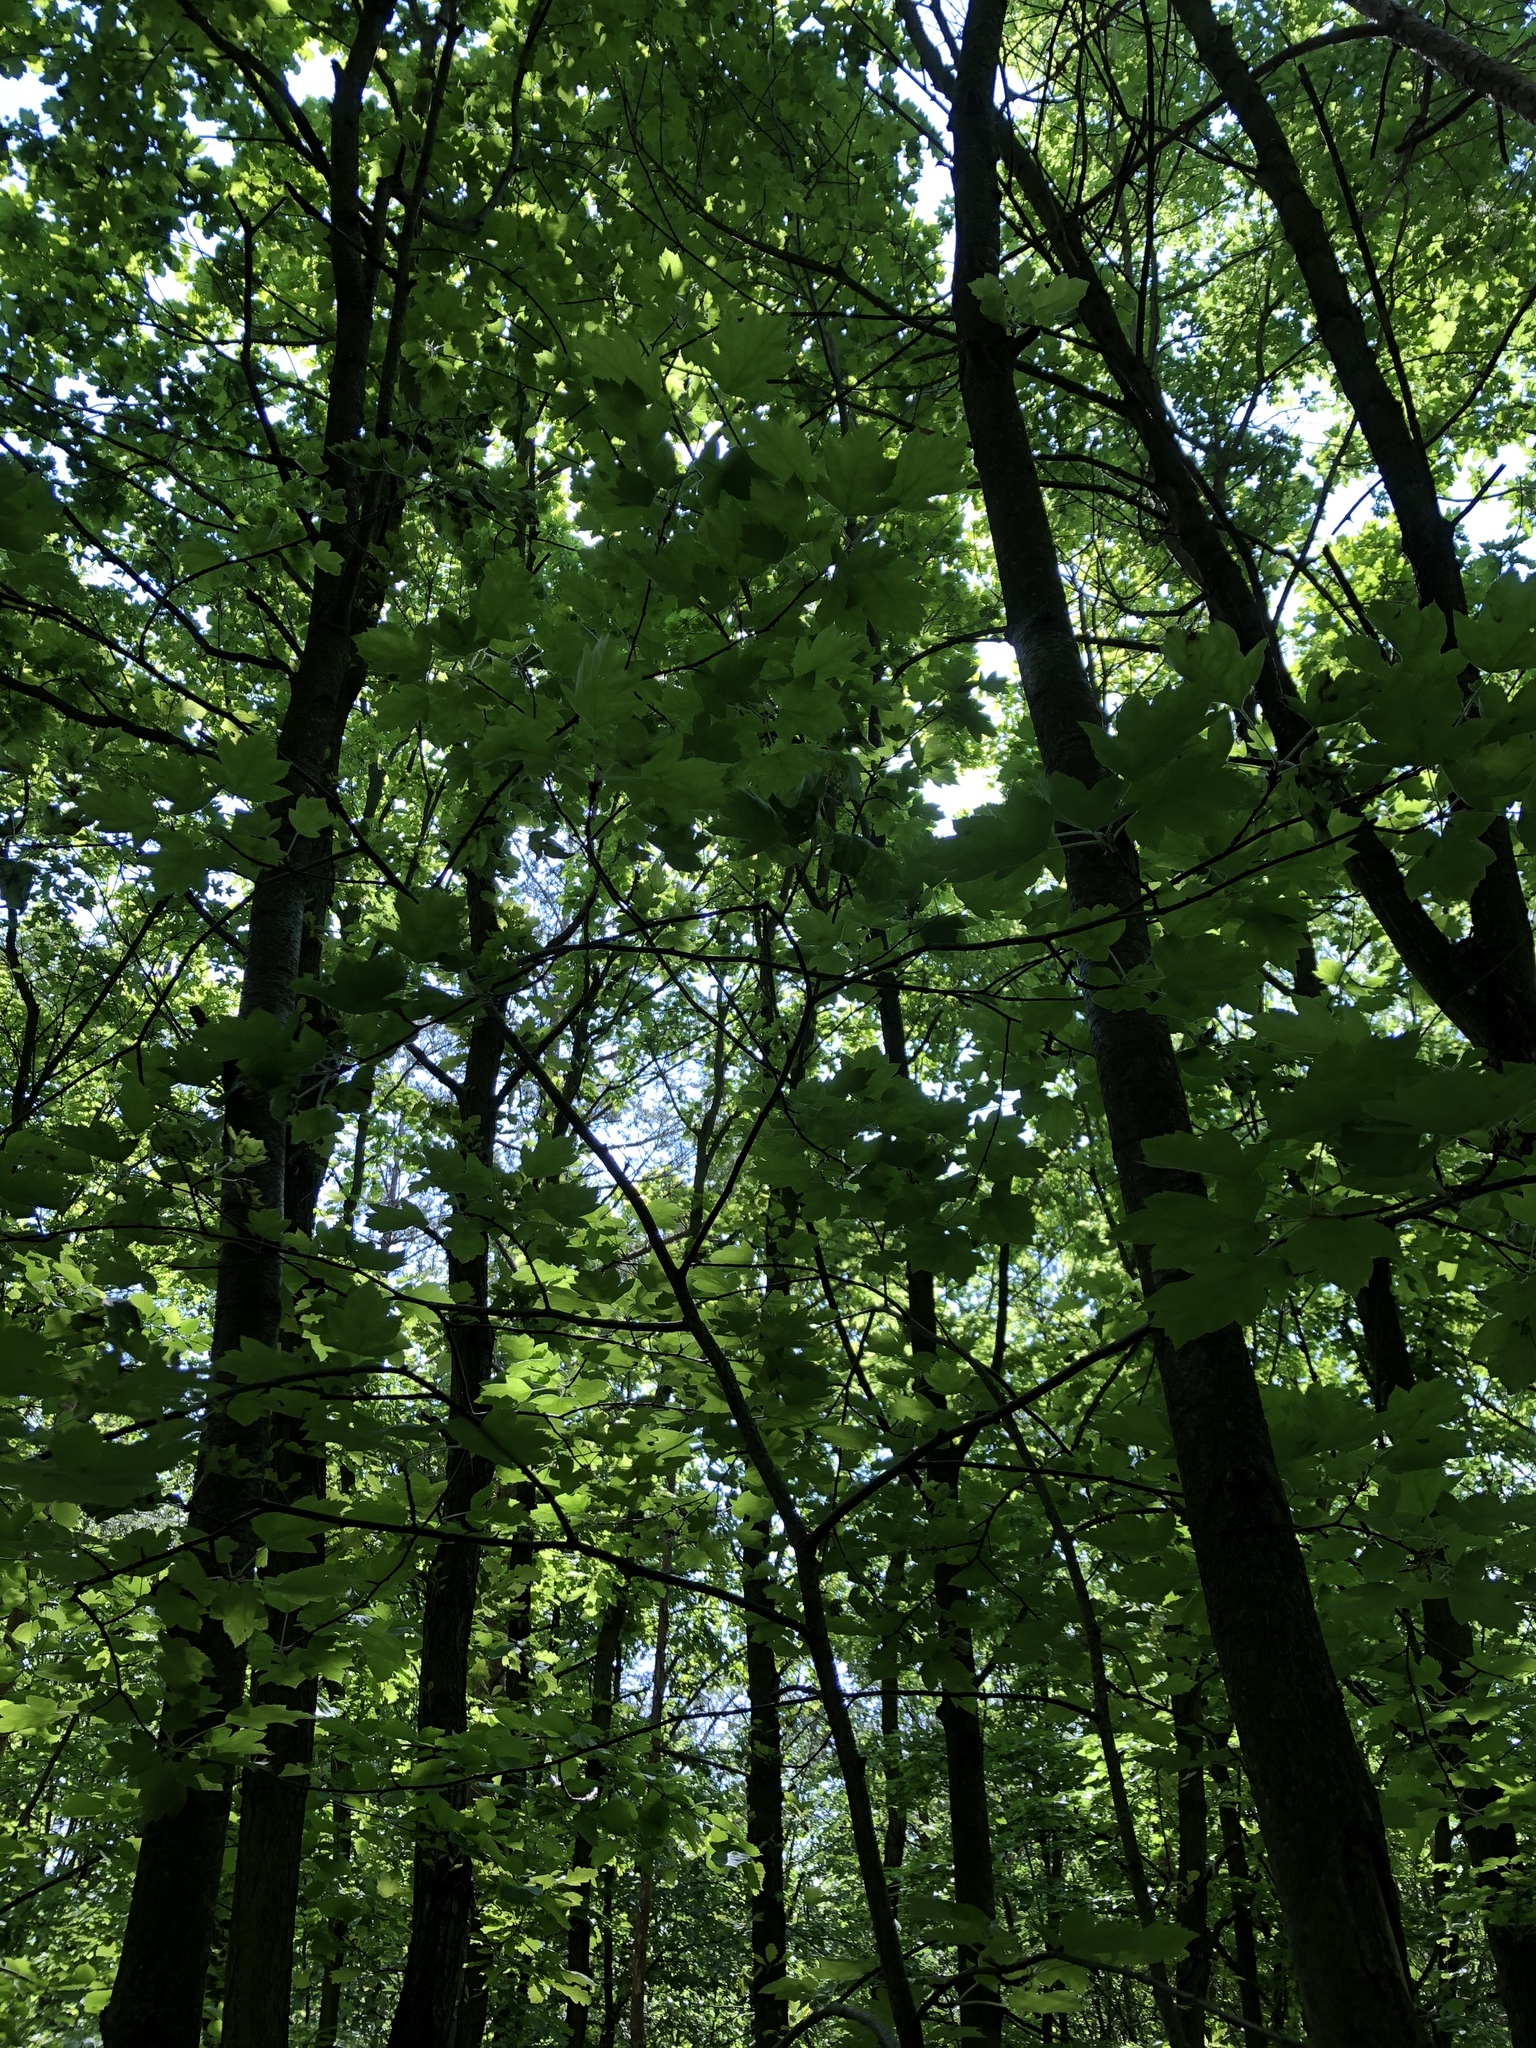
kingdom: Plantae
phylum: Tracheophyta
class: Magnoliopsida
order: Rosales
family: Rosaceae
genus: Torminalis
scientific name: Torminalis glaberrima
